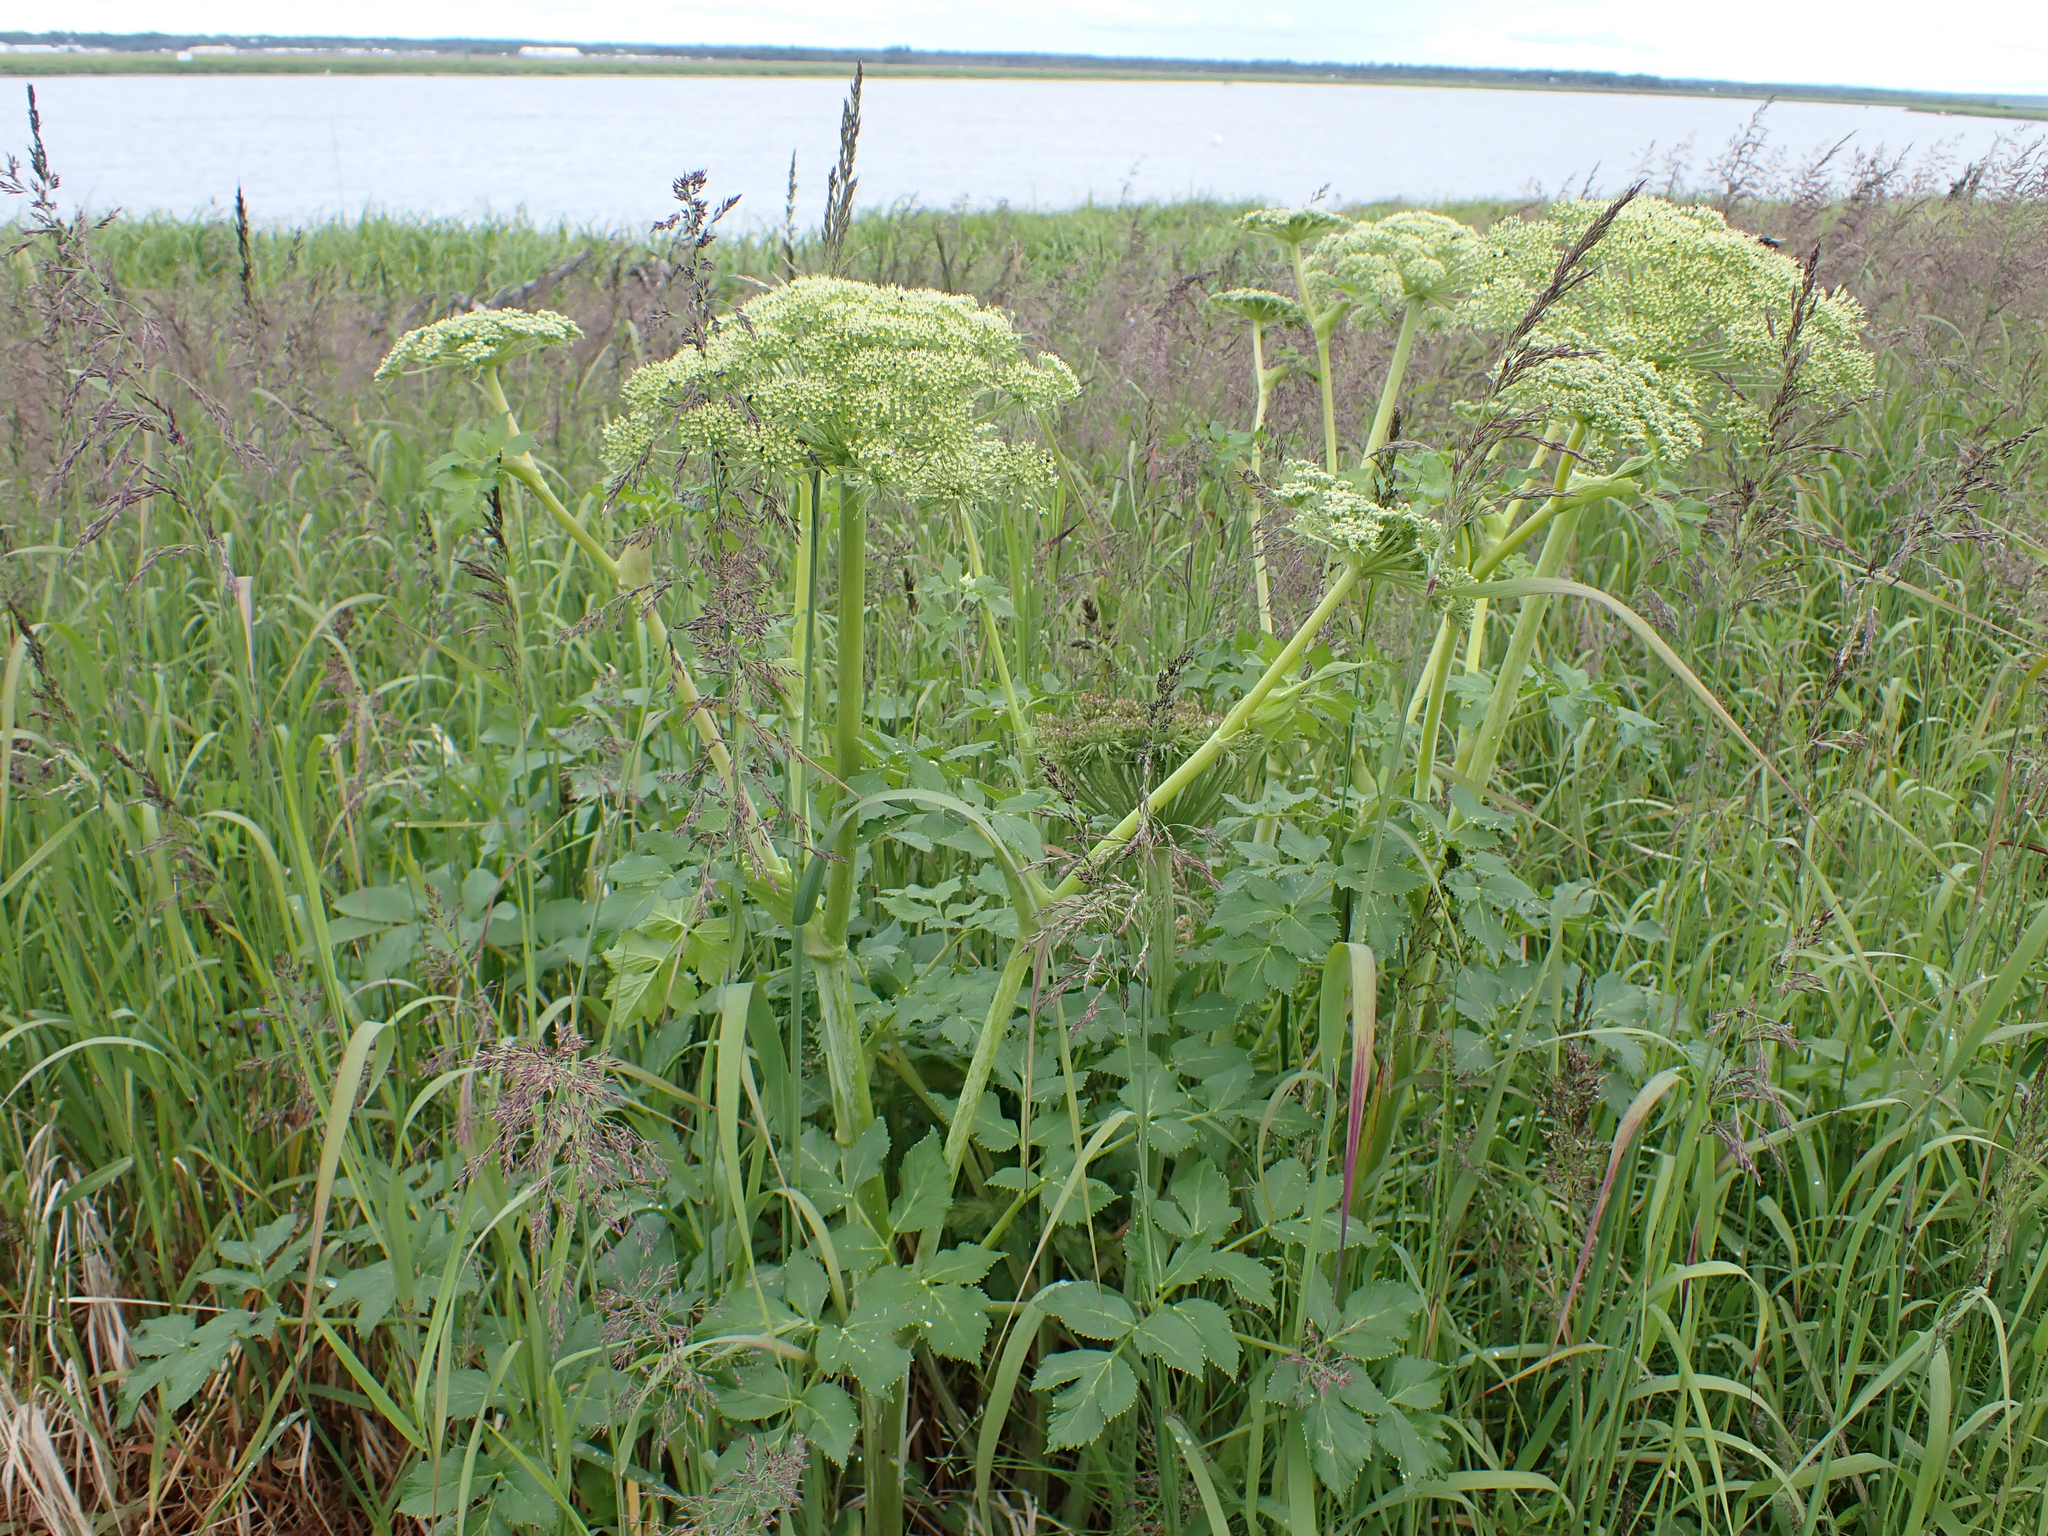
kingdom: Plantae
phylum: Tracheophyta
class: Magnoliopsida
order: Apiales
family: Apiaceae
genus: Angelica
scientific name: Angelica lucida
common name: Seabeach angelica
